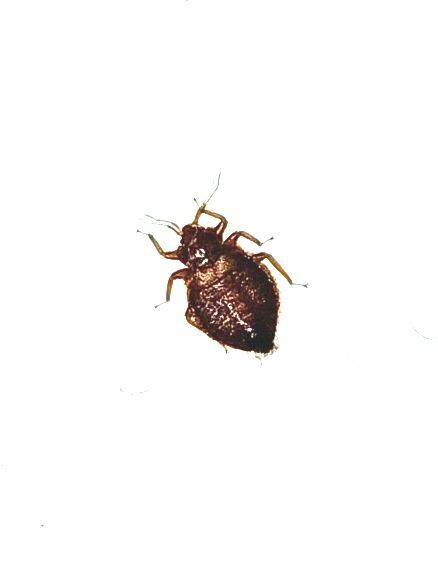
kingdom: Animalia
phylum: Arthropoda
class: Insecta
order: Hemiptera
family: Cimicidae
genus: Cimex
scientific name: Cimex lectularius
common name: Bed bug
